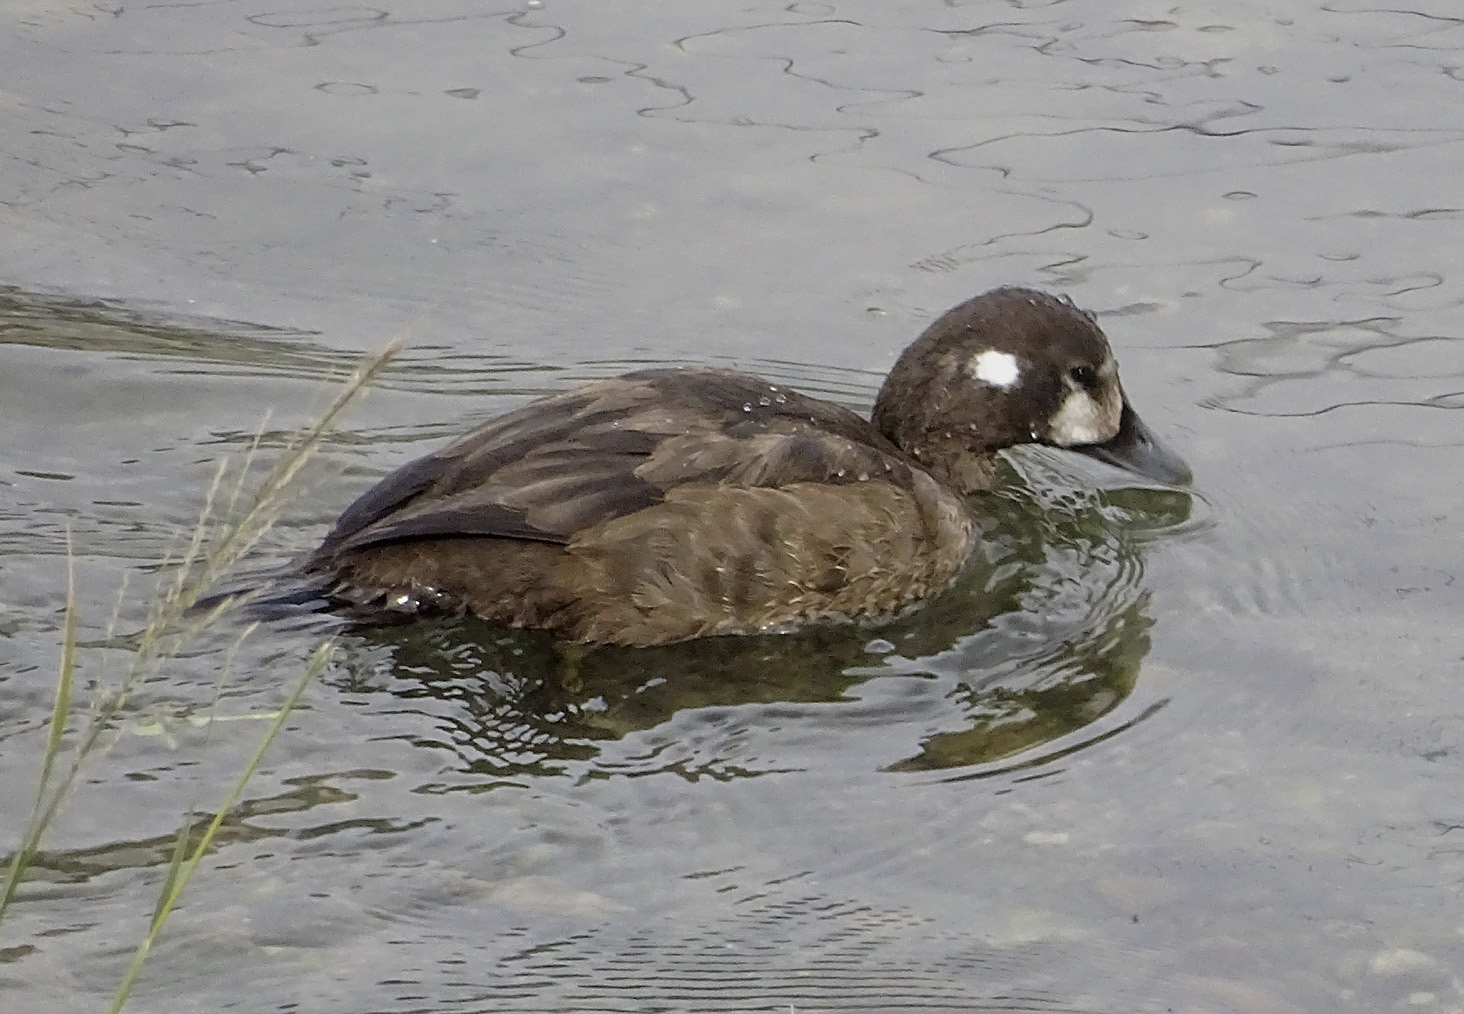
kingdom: Animalia
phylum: Chordata
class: Aves
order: Anseriformes
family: Anatidae
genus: Histrionicus
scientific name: Histrionicus histrionicus
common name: Harlequin duck
